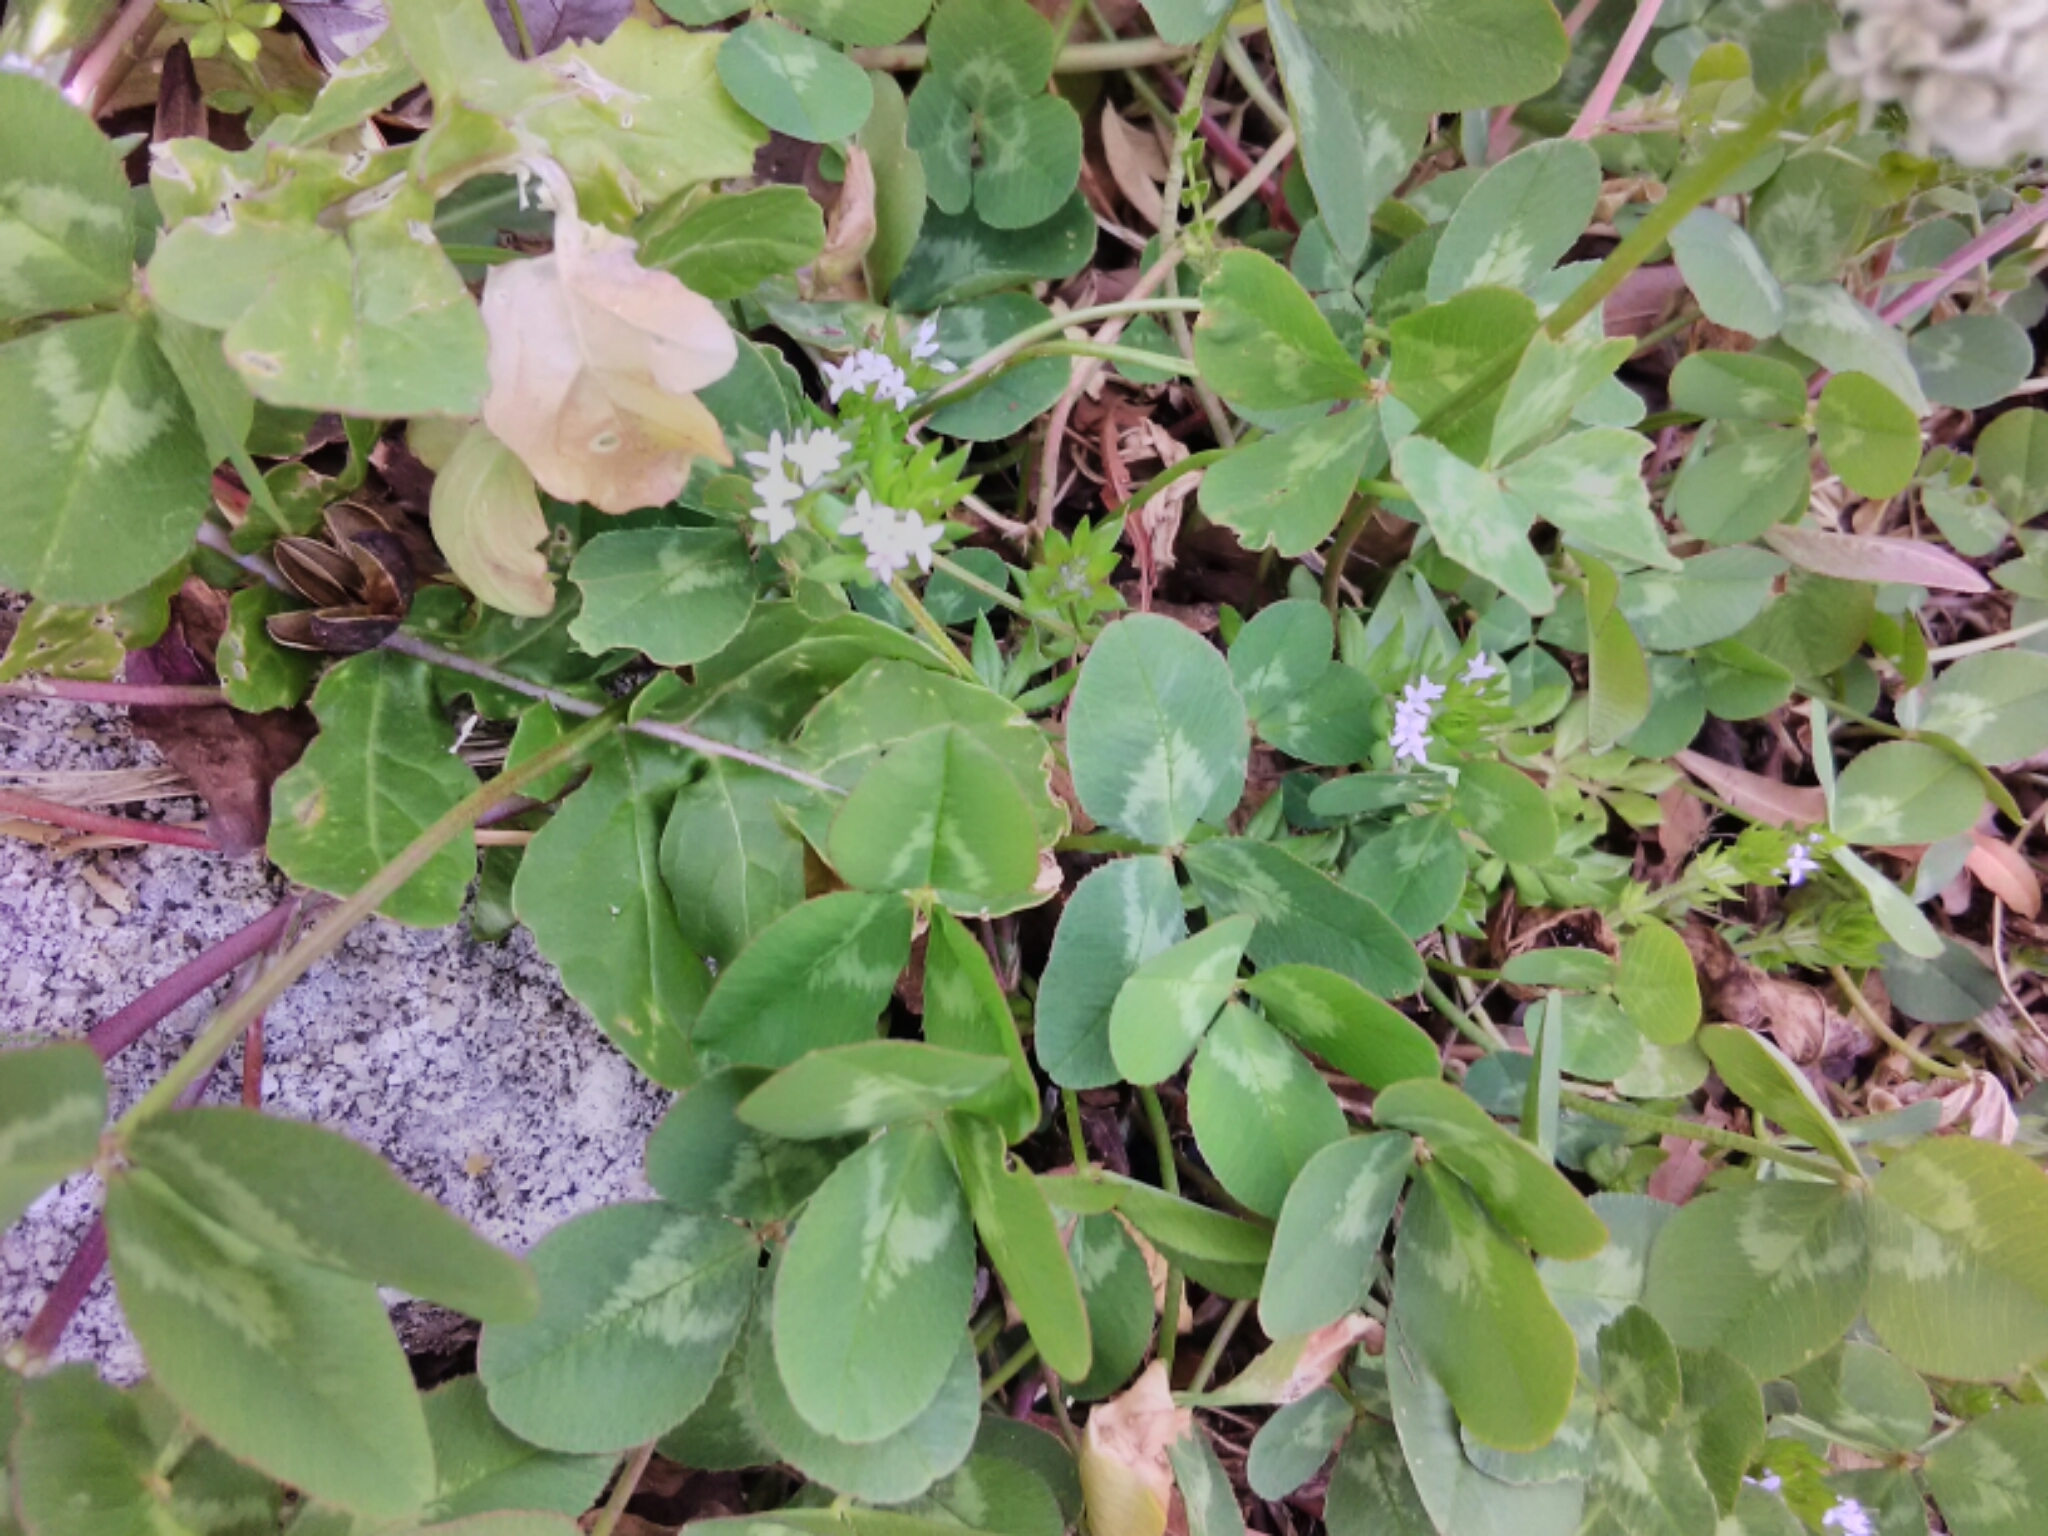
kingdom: Plantae
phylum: Tracheophyta
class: Magnoliopsida
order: Gentianales
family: Rubiaceae
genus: Sherardia
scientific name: Sherardia arvensis
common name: Field madder
